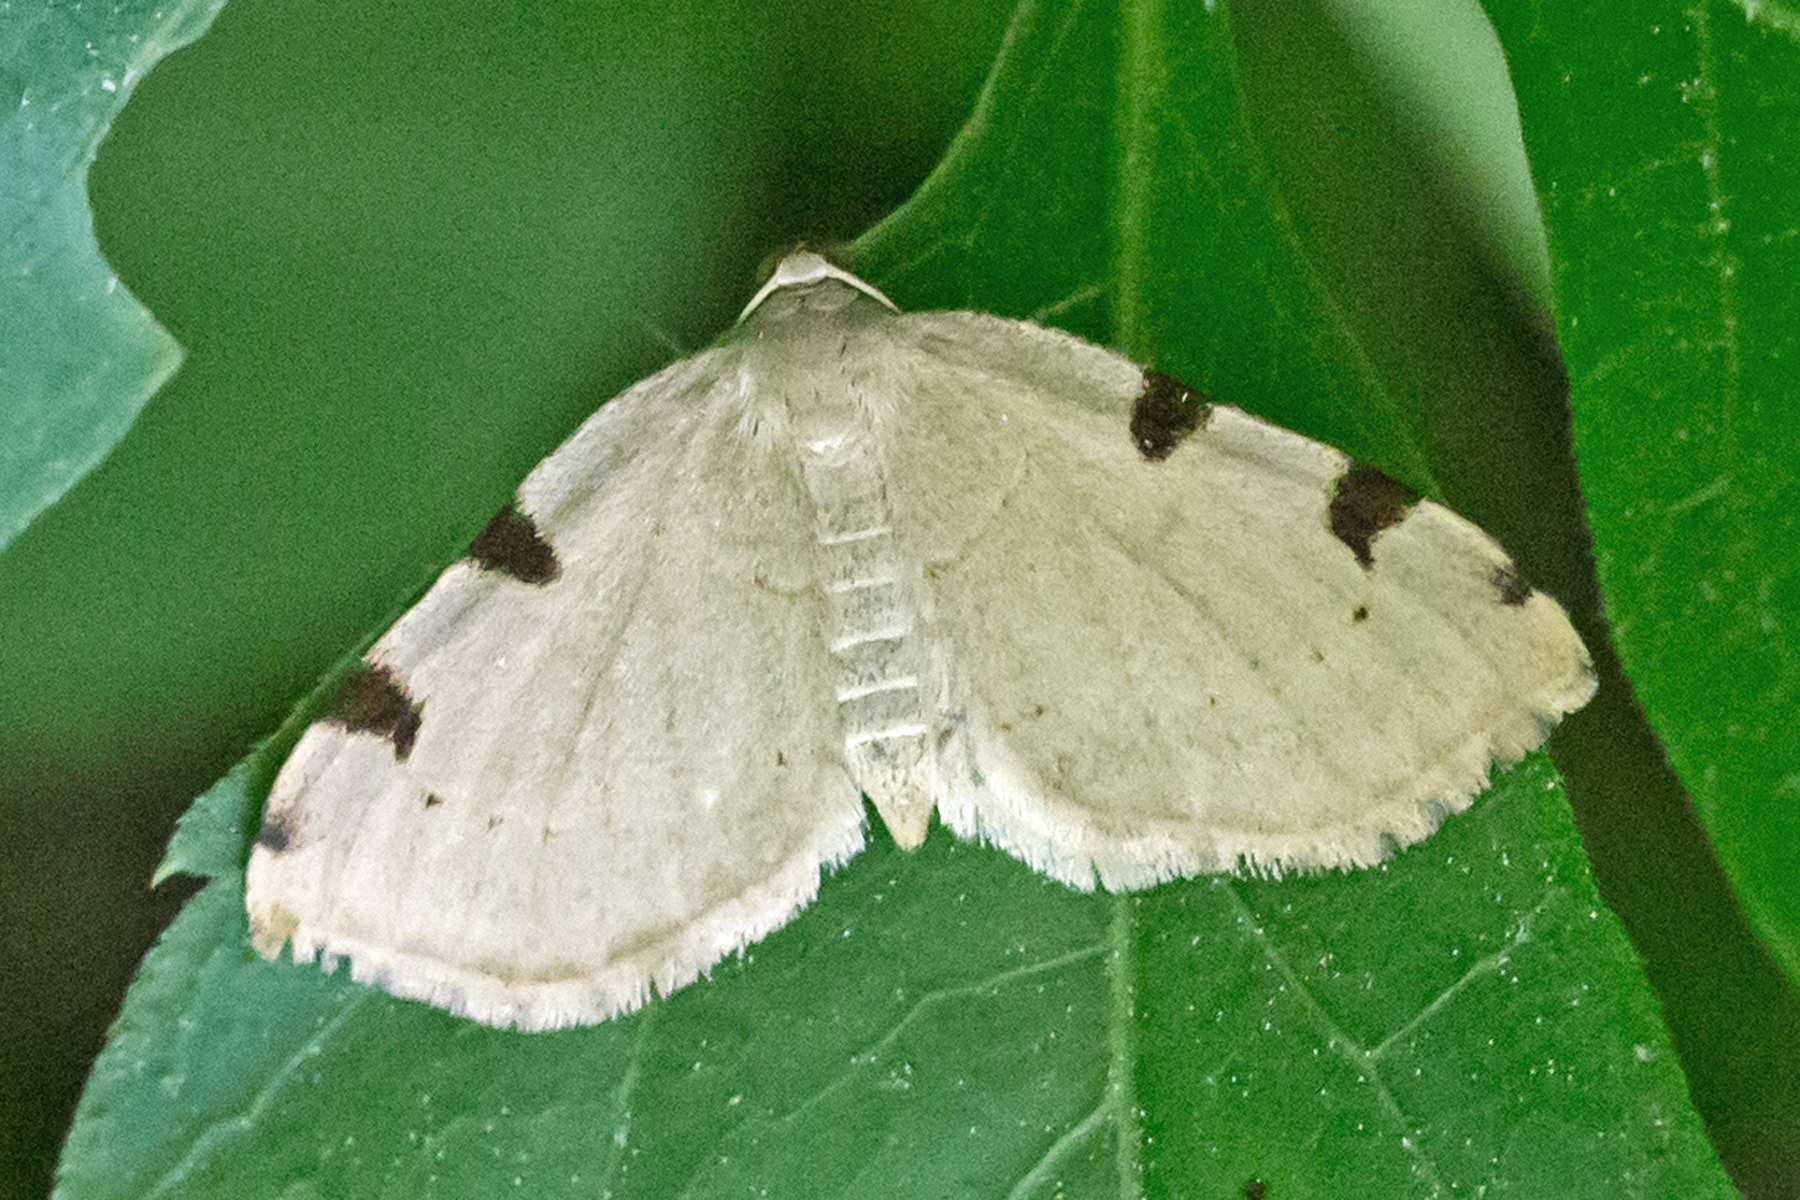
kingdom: Animalia
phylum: Arthropoda
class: Insecta
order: Lepidoptera
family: Geometridae
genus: Heterophleps
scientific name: Heterophleps triguttaria
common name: Three-spotted fillip
